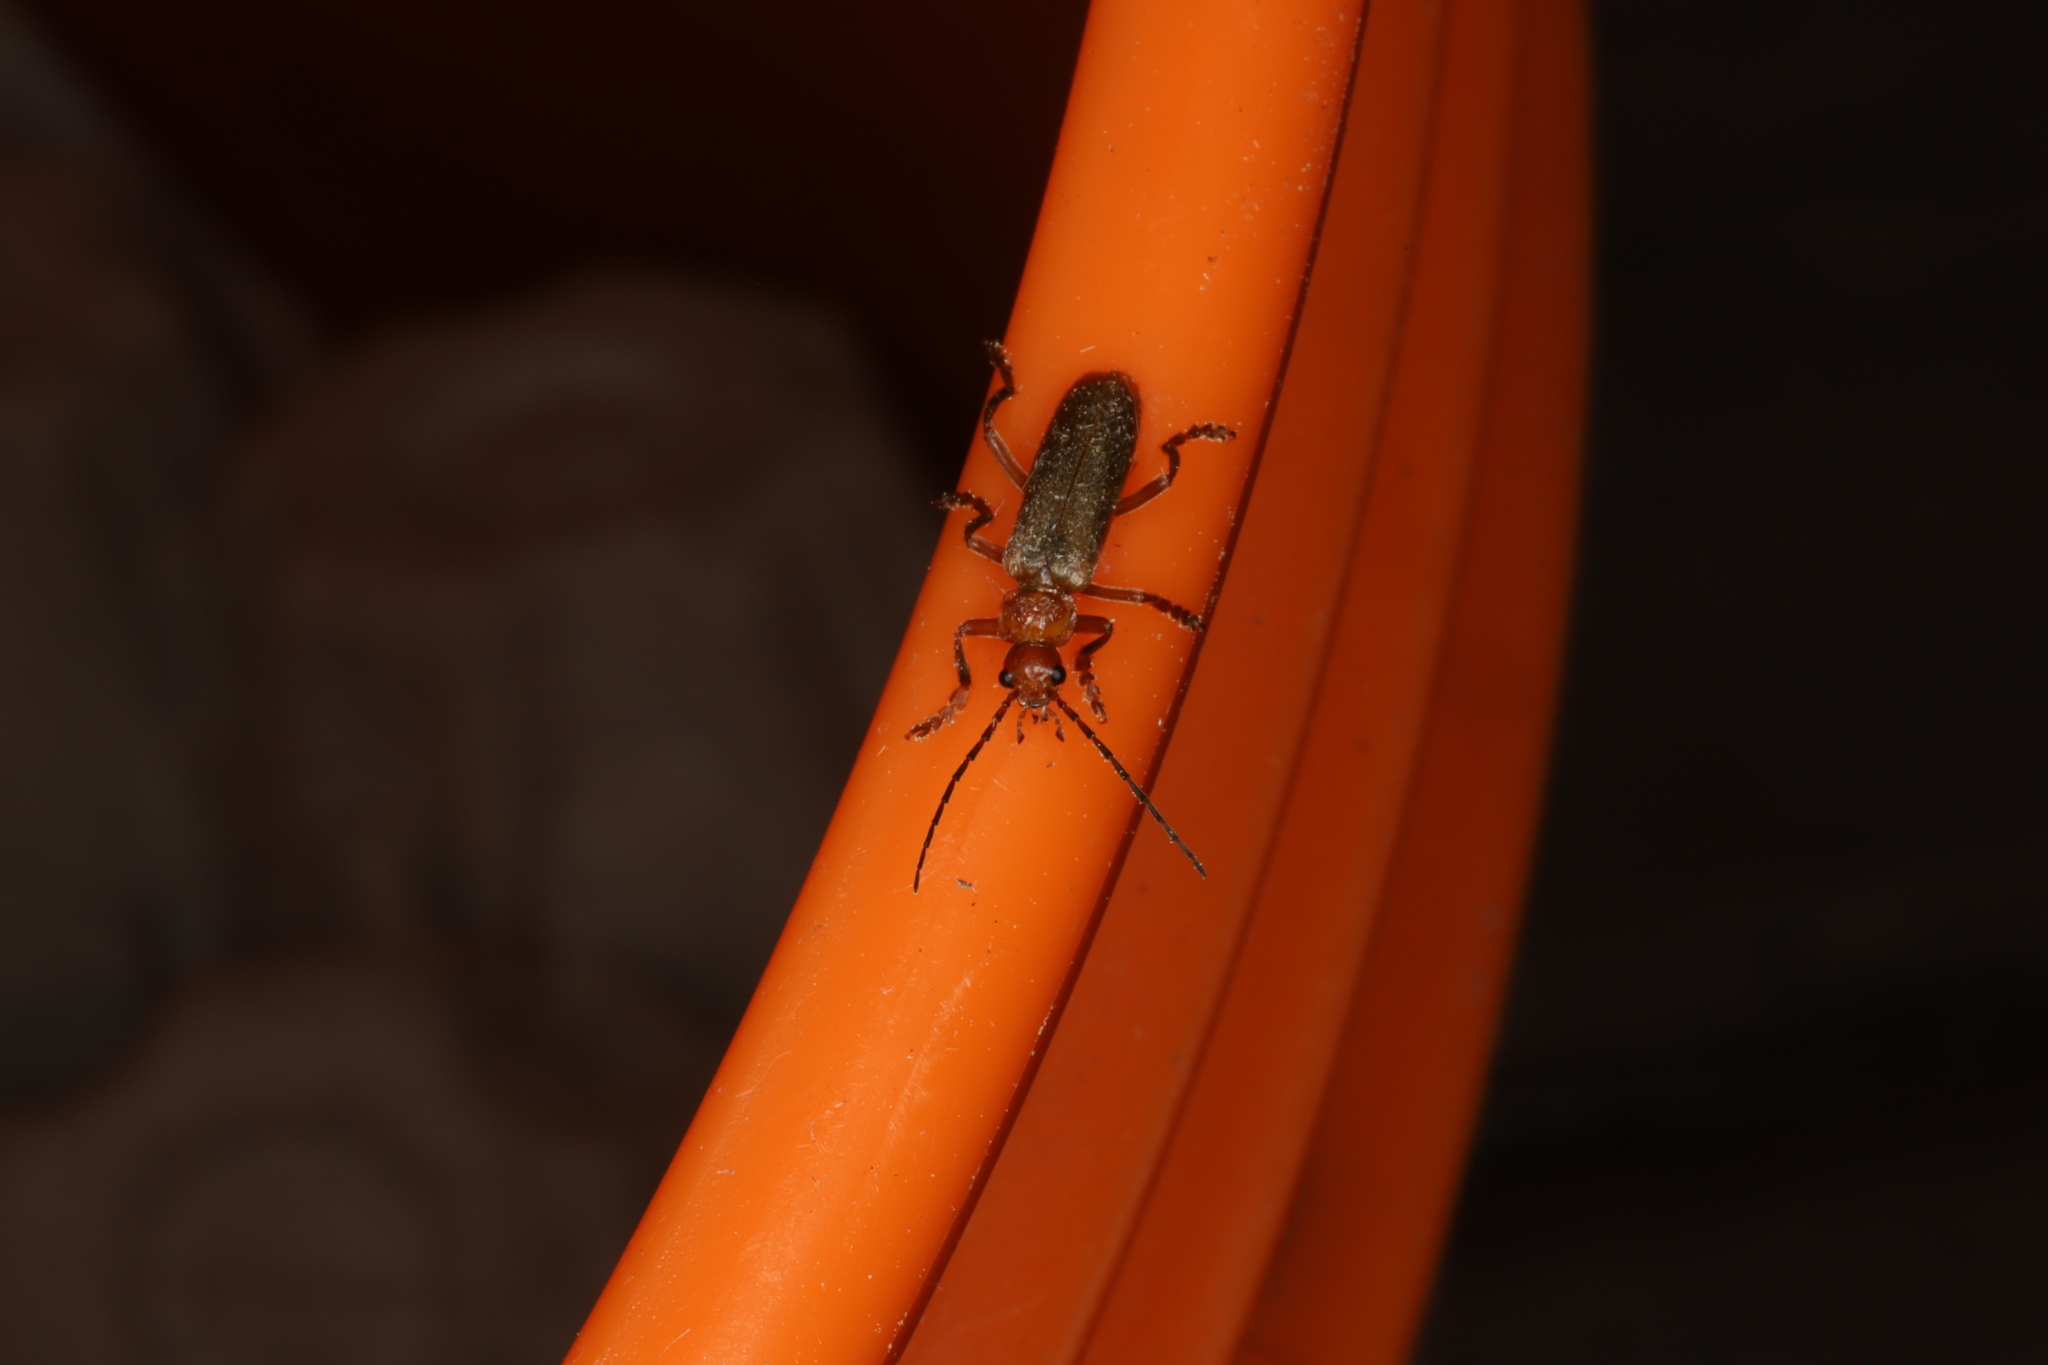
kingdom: Animalia
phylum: Arthropoda
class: Insecta
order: Coleoptera
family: Cantharidae
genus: Cantharis
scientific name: Cantharis rufa
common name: Red-spotted soldier beetle
